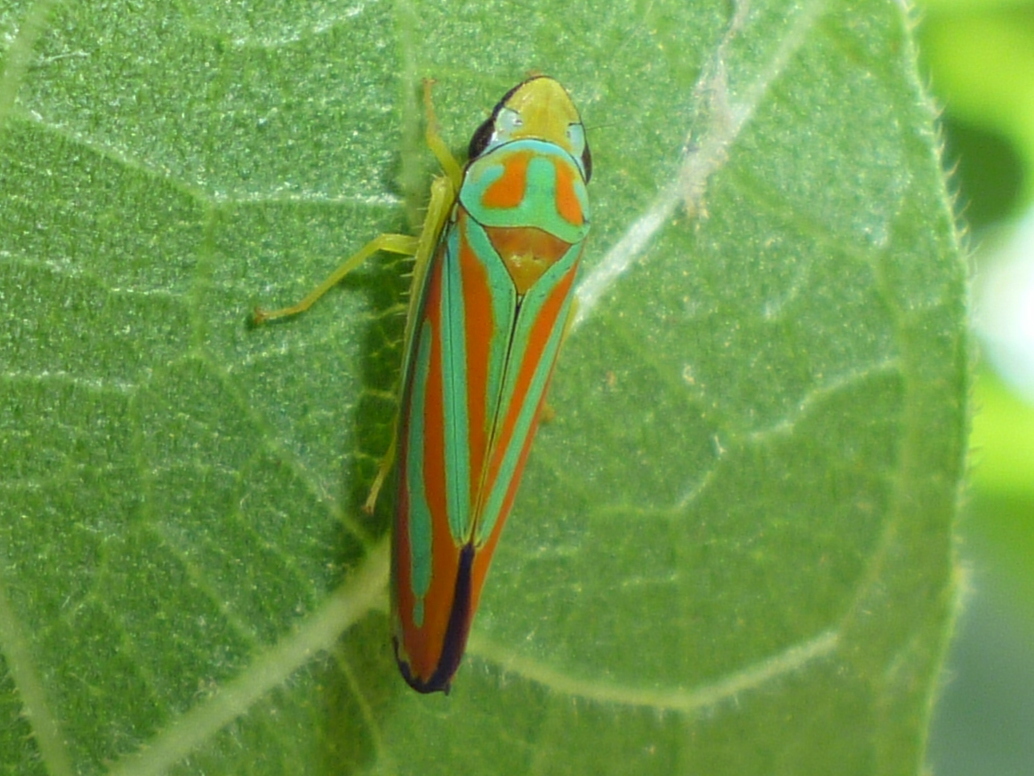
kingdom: Animalia
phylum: Arthropoda
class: Insecta
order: Hemiptera
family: Cicadellidae
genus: Graphocephala
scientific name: Graphocephala coccinea
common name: Candy-striped leafhopper
